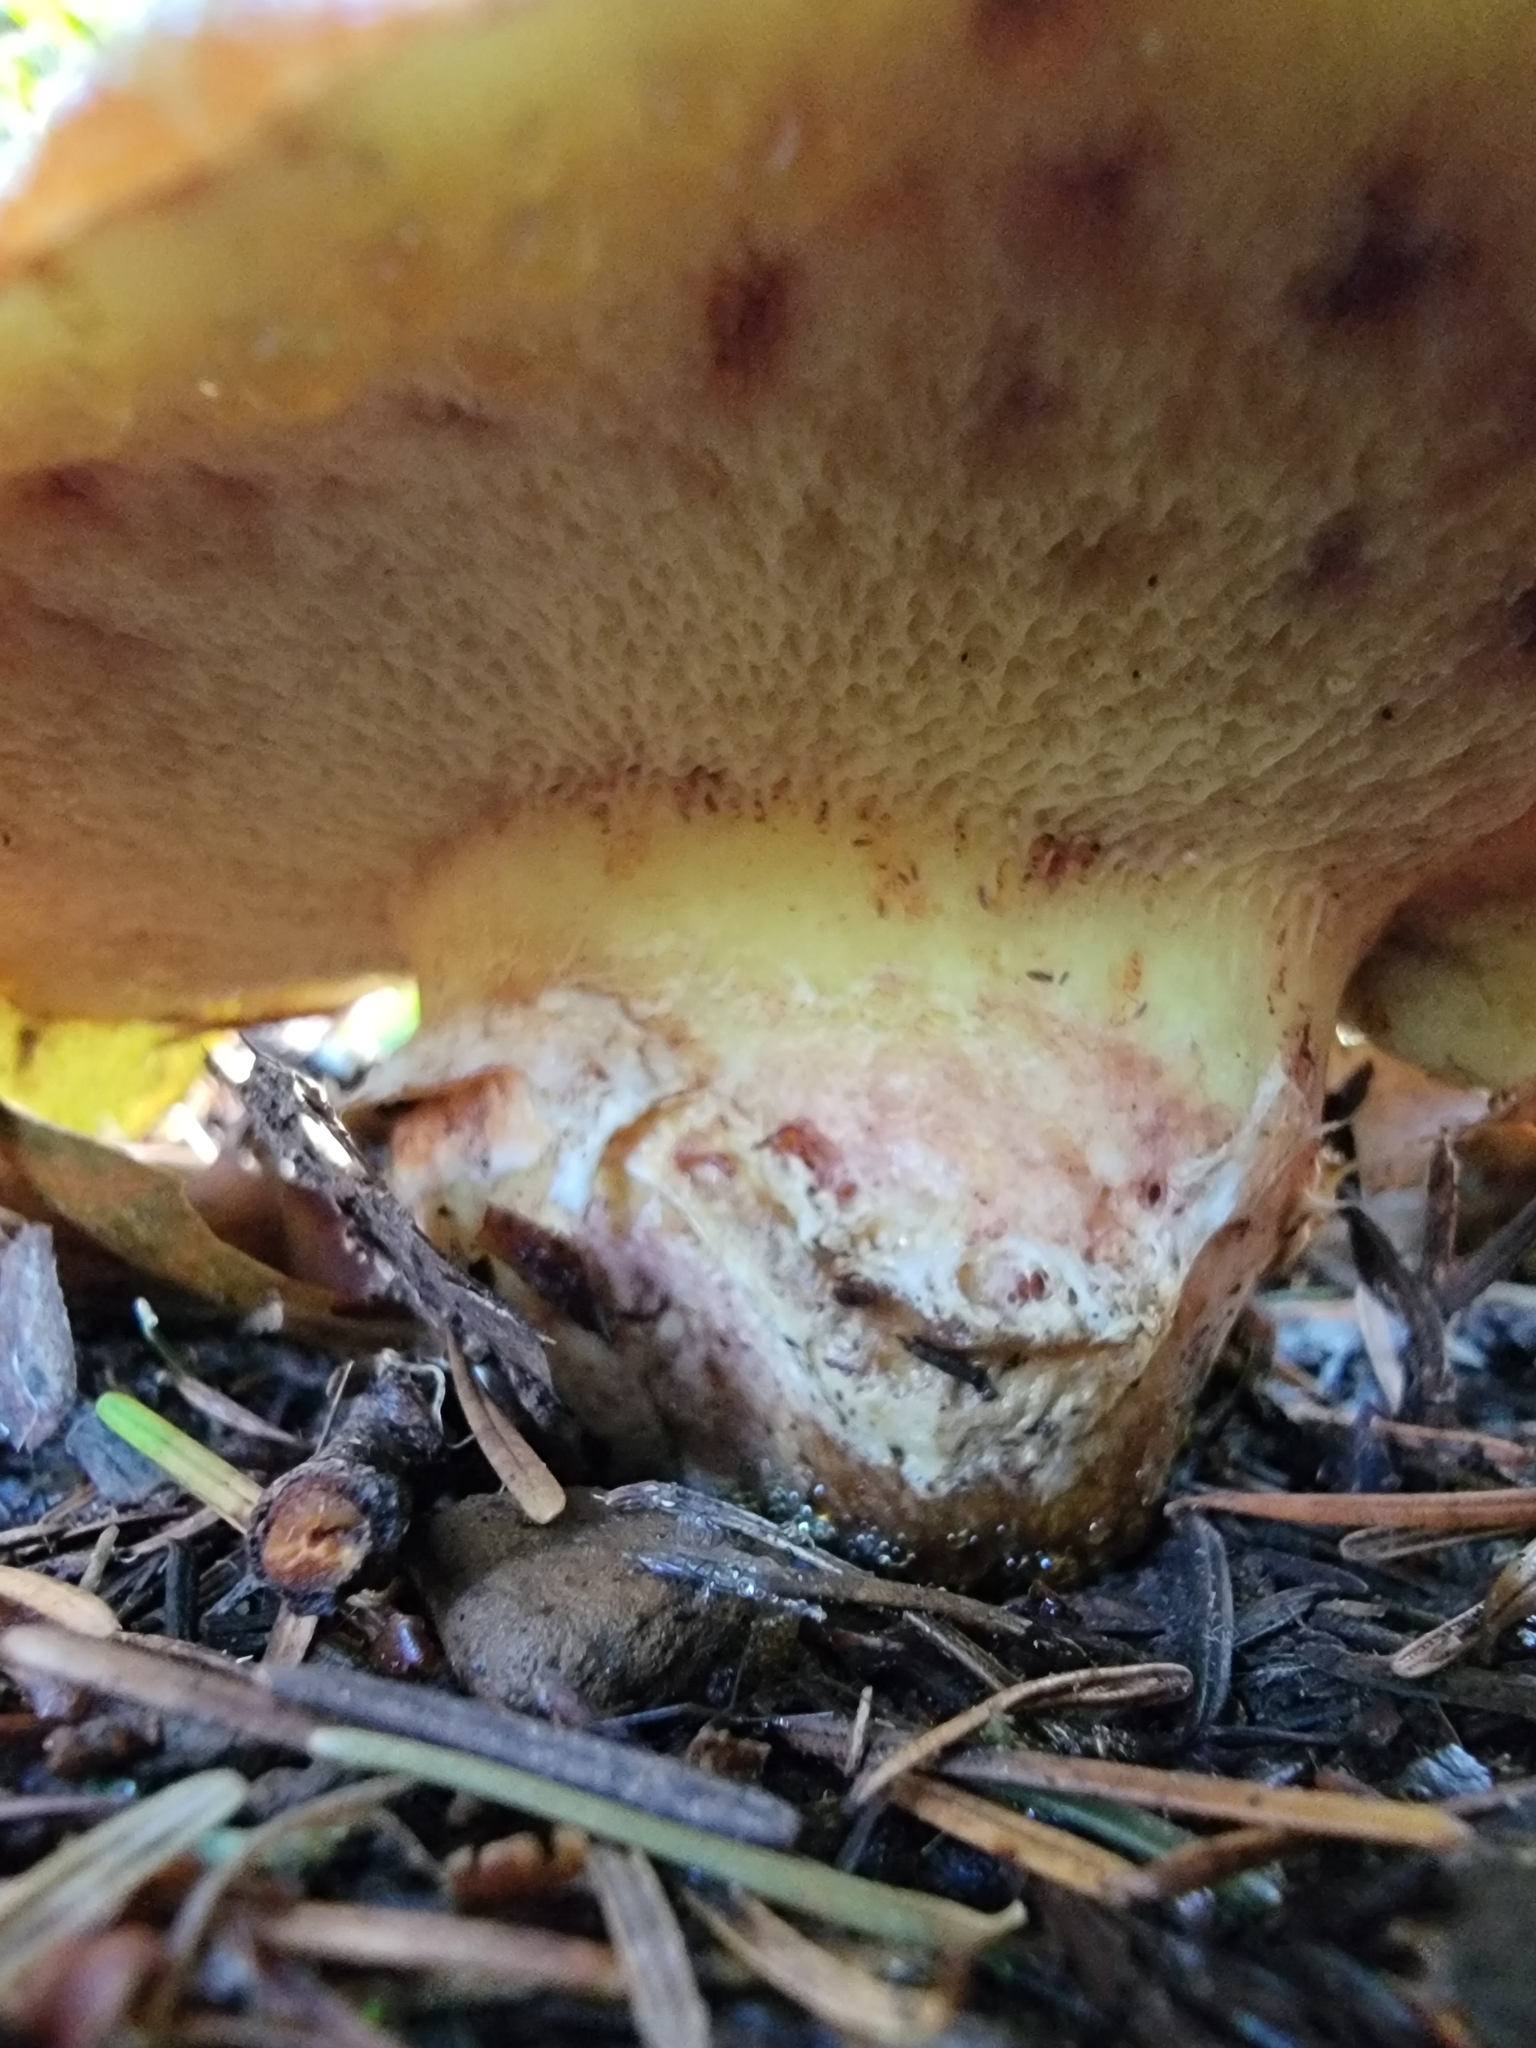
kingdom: Fungi
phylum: Basidiomycota
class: Agaricomycetes
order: Boletales
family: Suillaceae
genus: Suillus
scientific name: Suillus caerulescens
